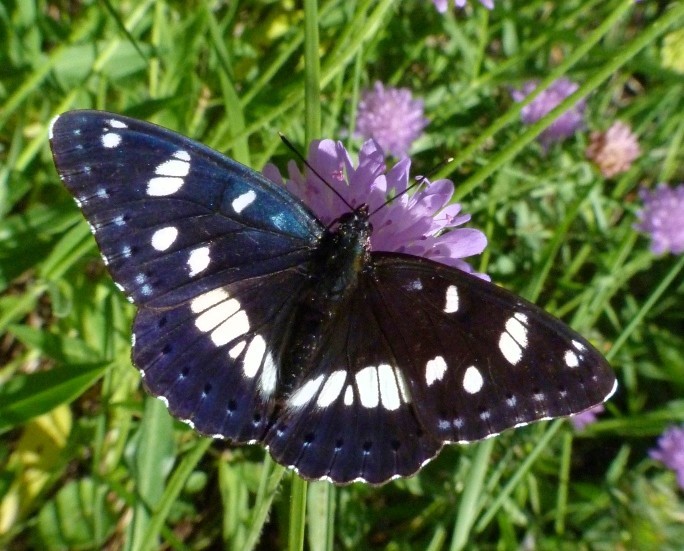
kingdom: Animalia
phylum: Arthropoda
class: Insecta
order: Lepidoptera
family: Nymphalidae
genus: Limenitis
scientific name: Limenitis reducta
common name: Southern white admiral
